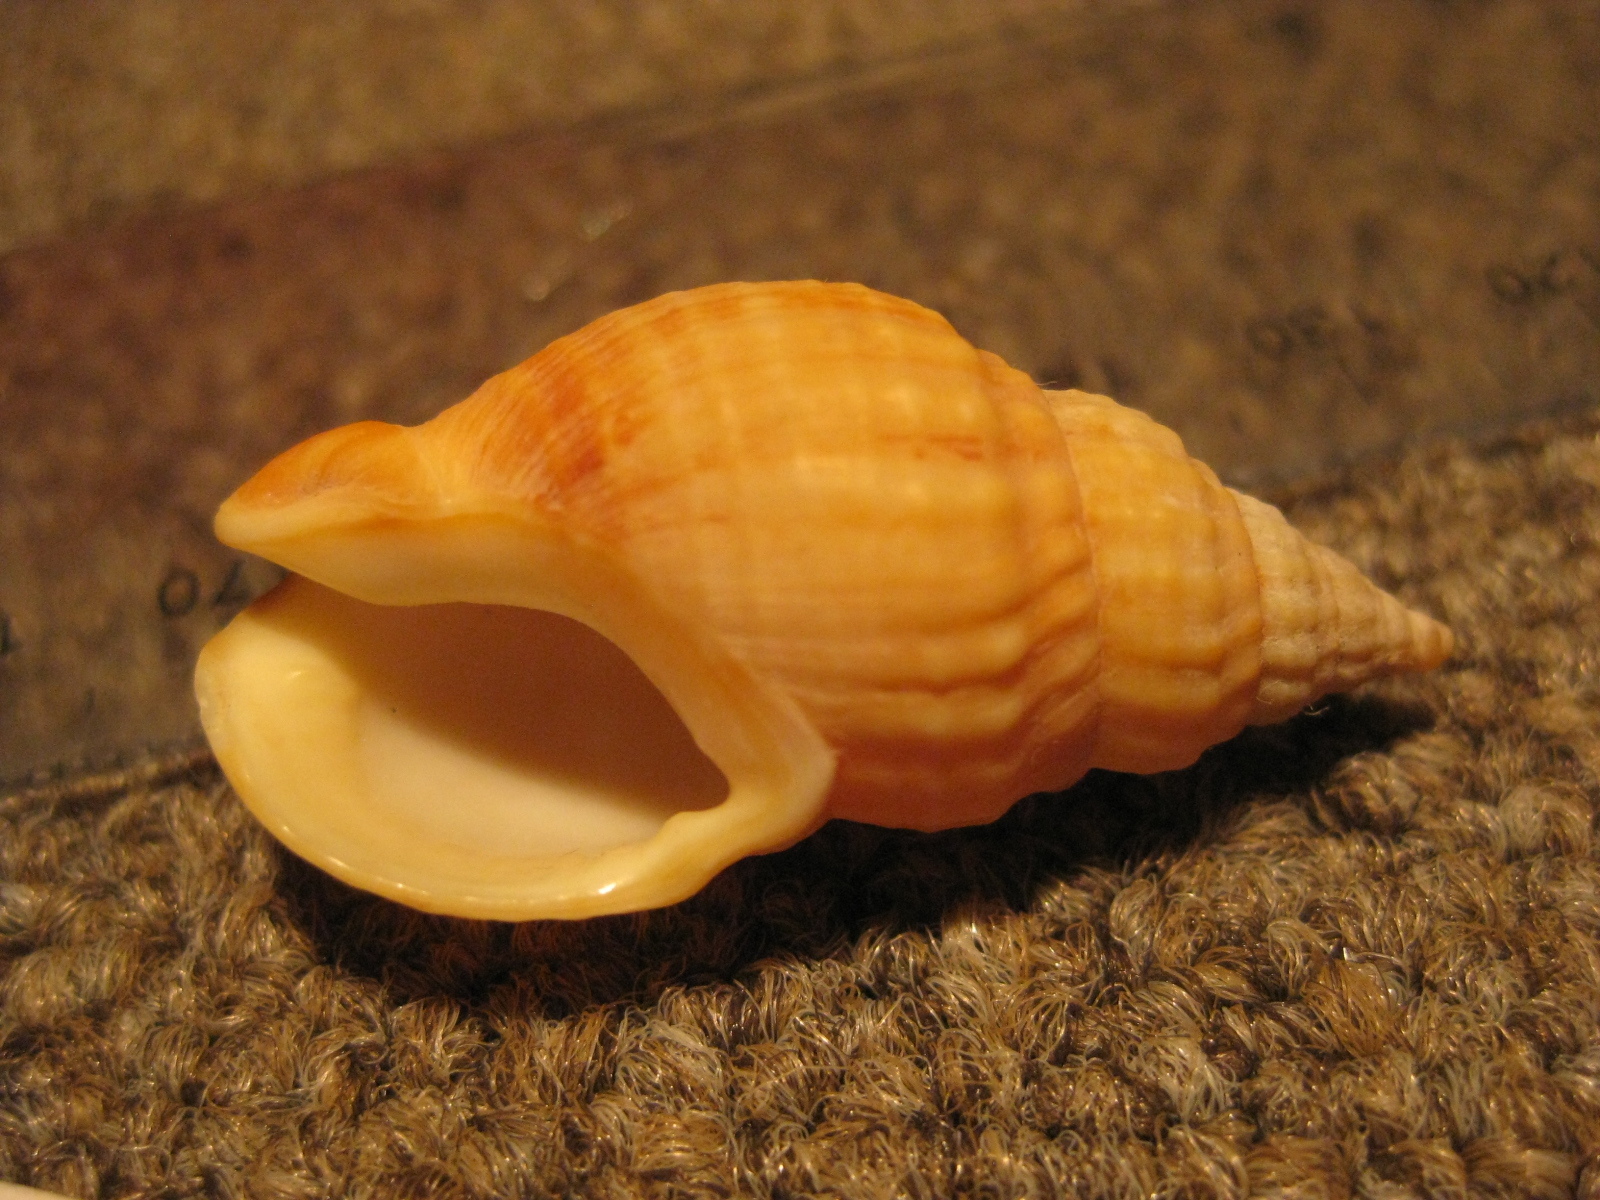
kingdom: Animalia
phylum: Mollusca
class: Gastropoda
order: Neogastropoda
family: Cominellidae
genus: Cominella
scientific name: Cominella nassoides
